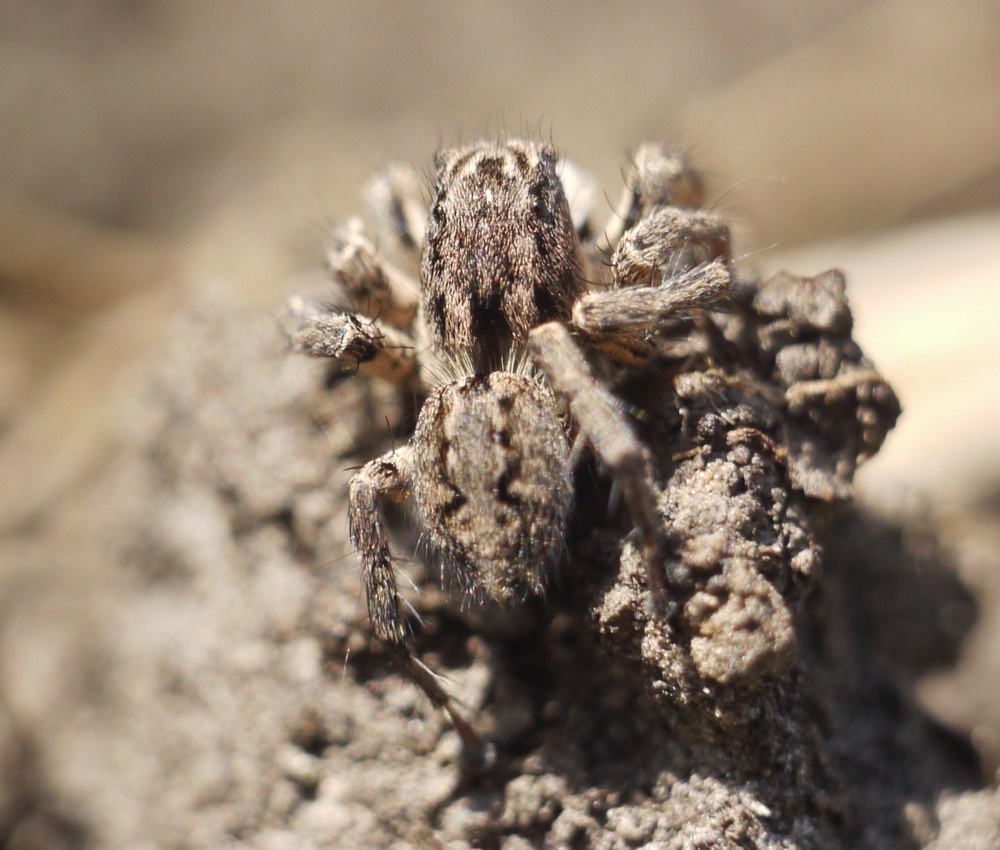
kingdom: Animalia
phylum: Arthropoda
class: Arachnida
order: Araneae
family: Salticidae
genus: Aelurillus
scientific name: Aelurillus v-insignitus
